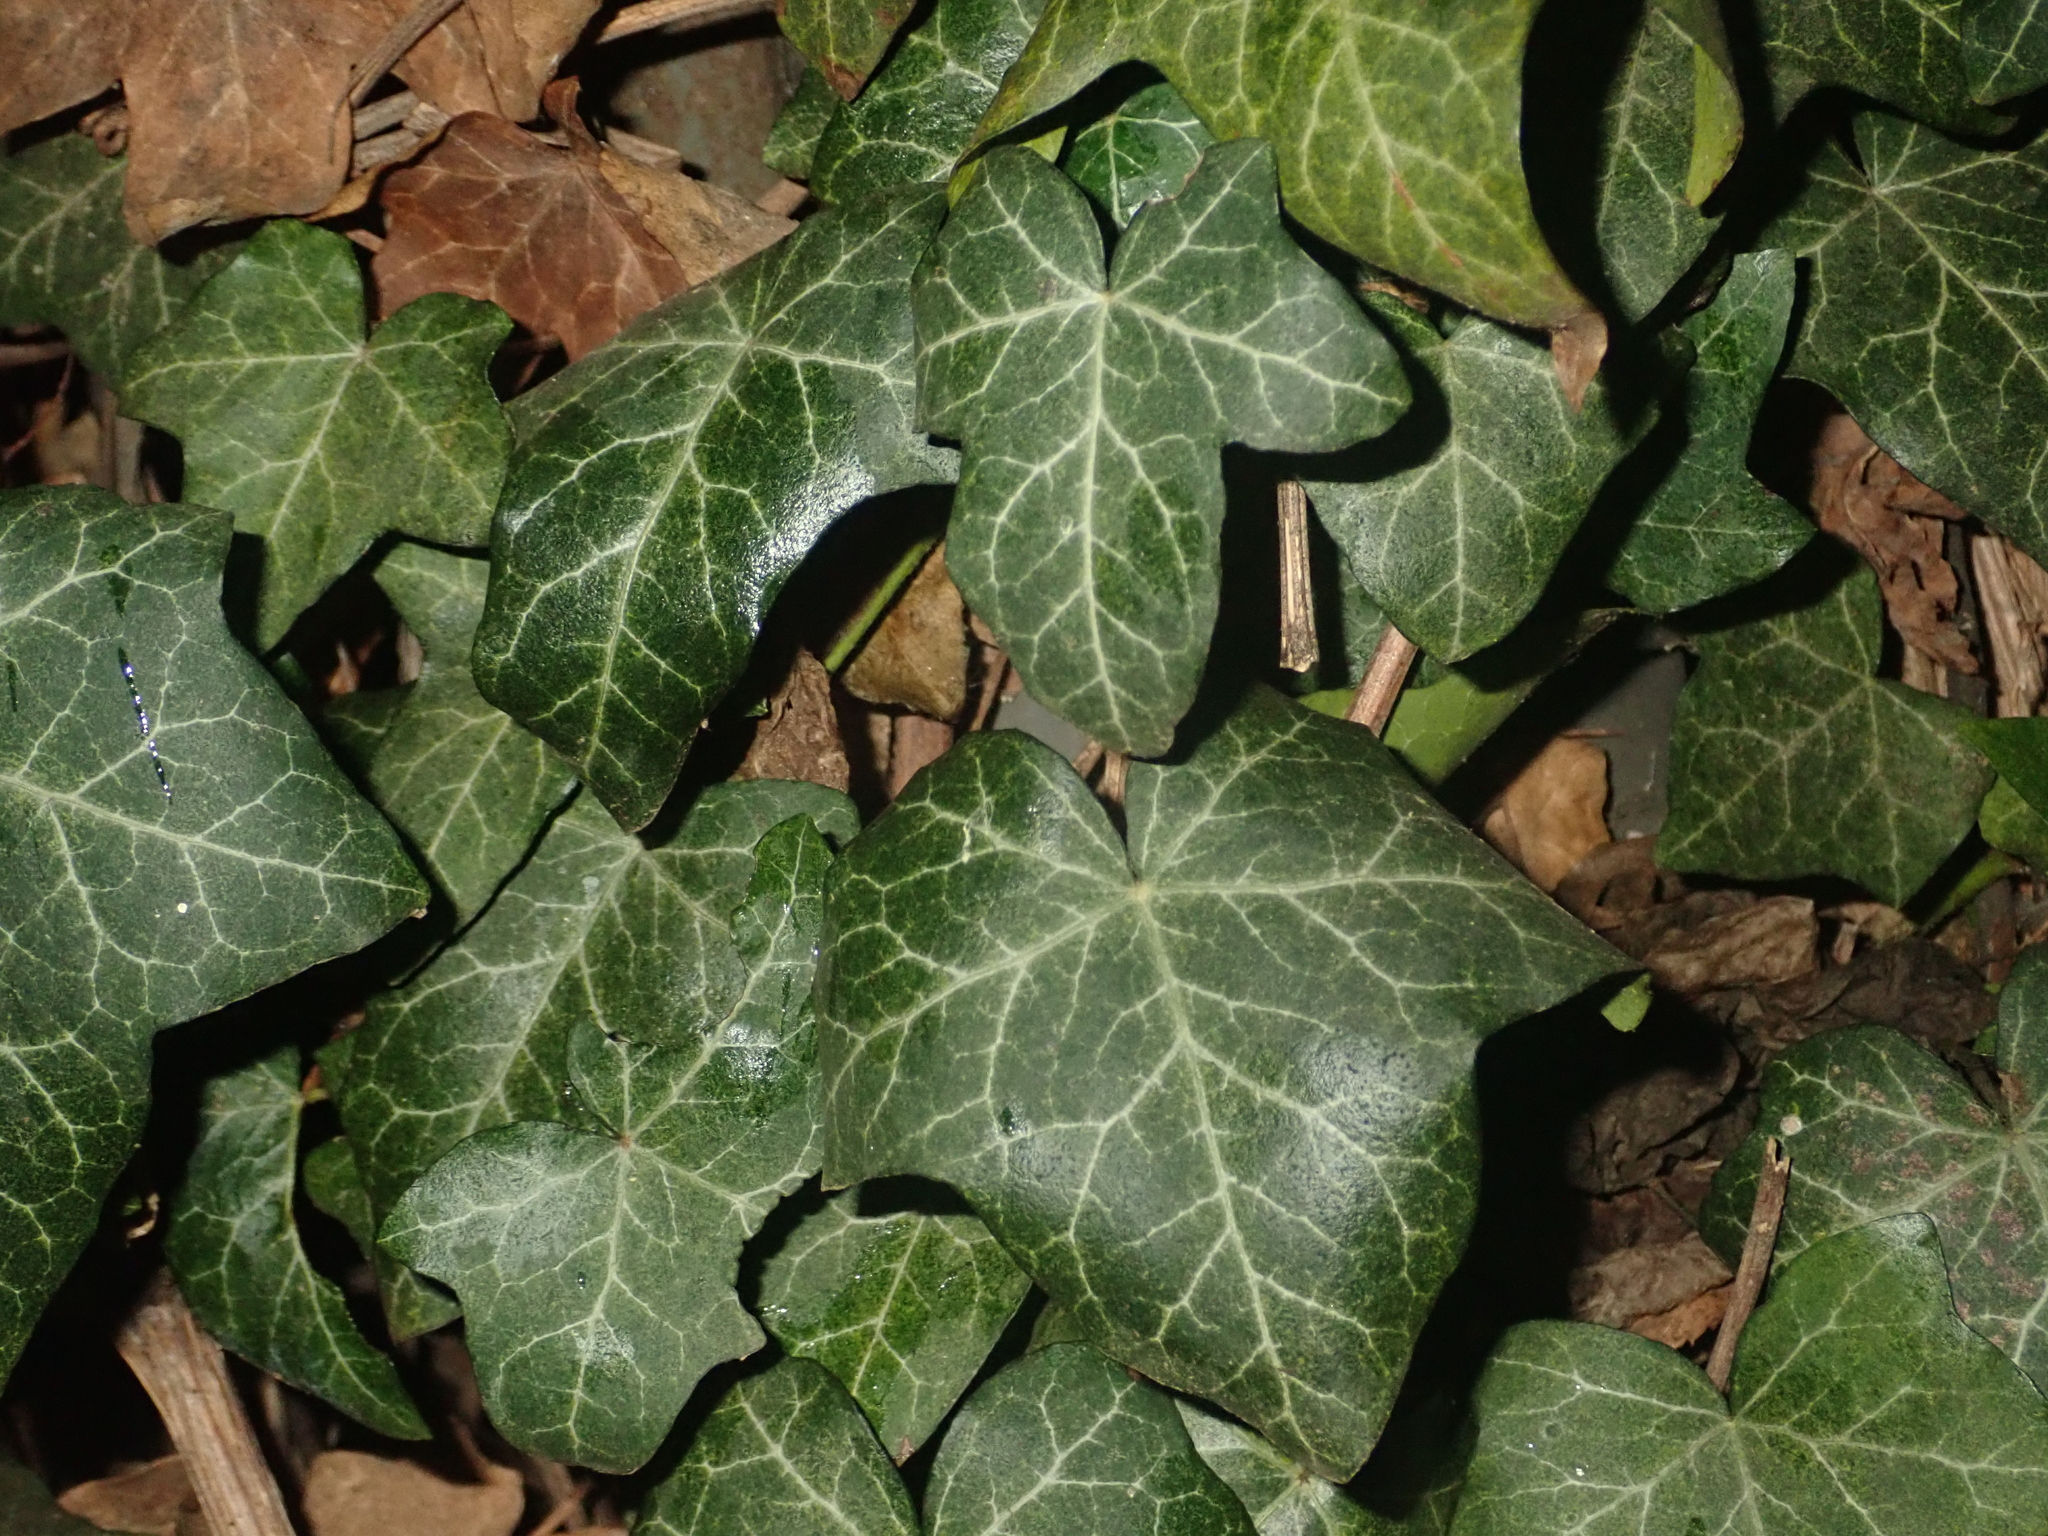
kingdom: Plantae
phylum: Tracheophyta
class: Magnoliopsida
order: Apiales
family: Araliaceae
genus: Hedera
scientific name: Hedera helix
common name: Ivy
